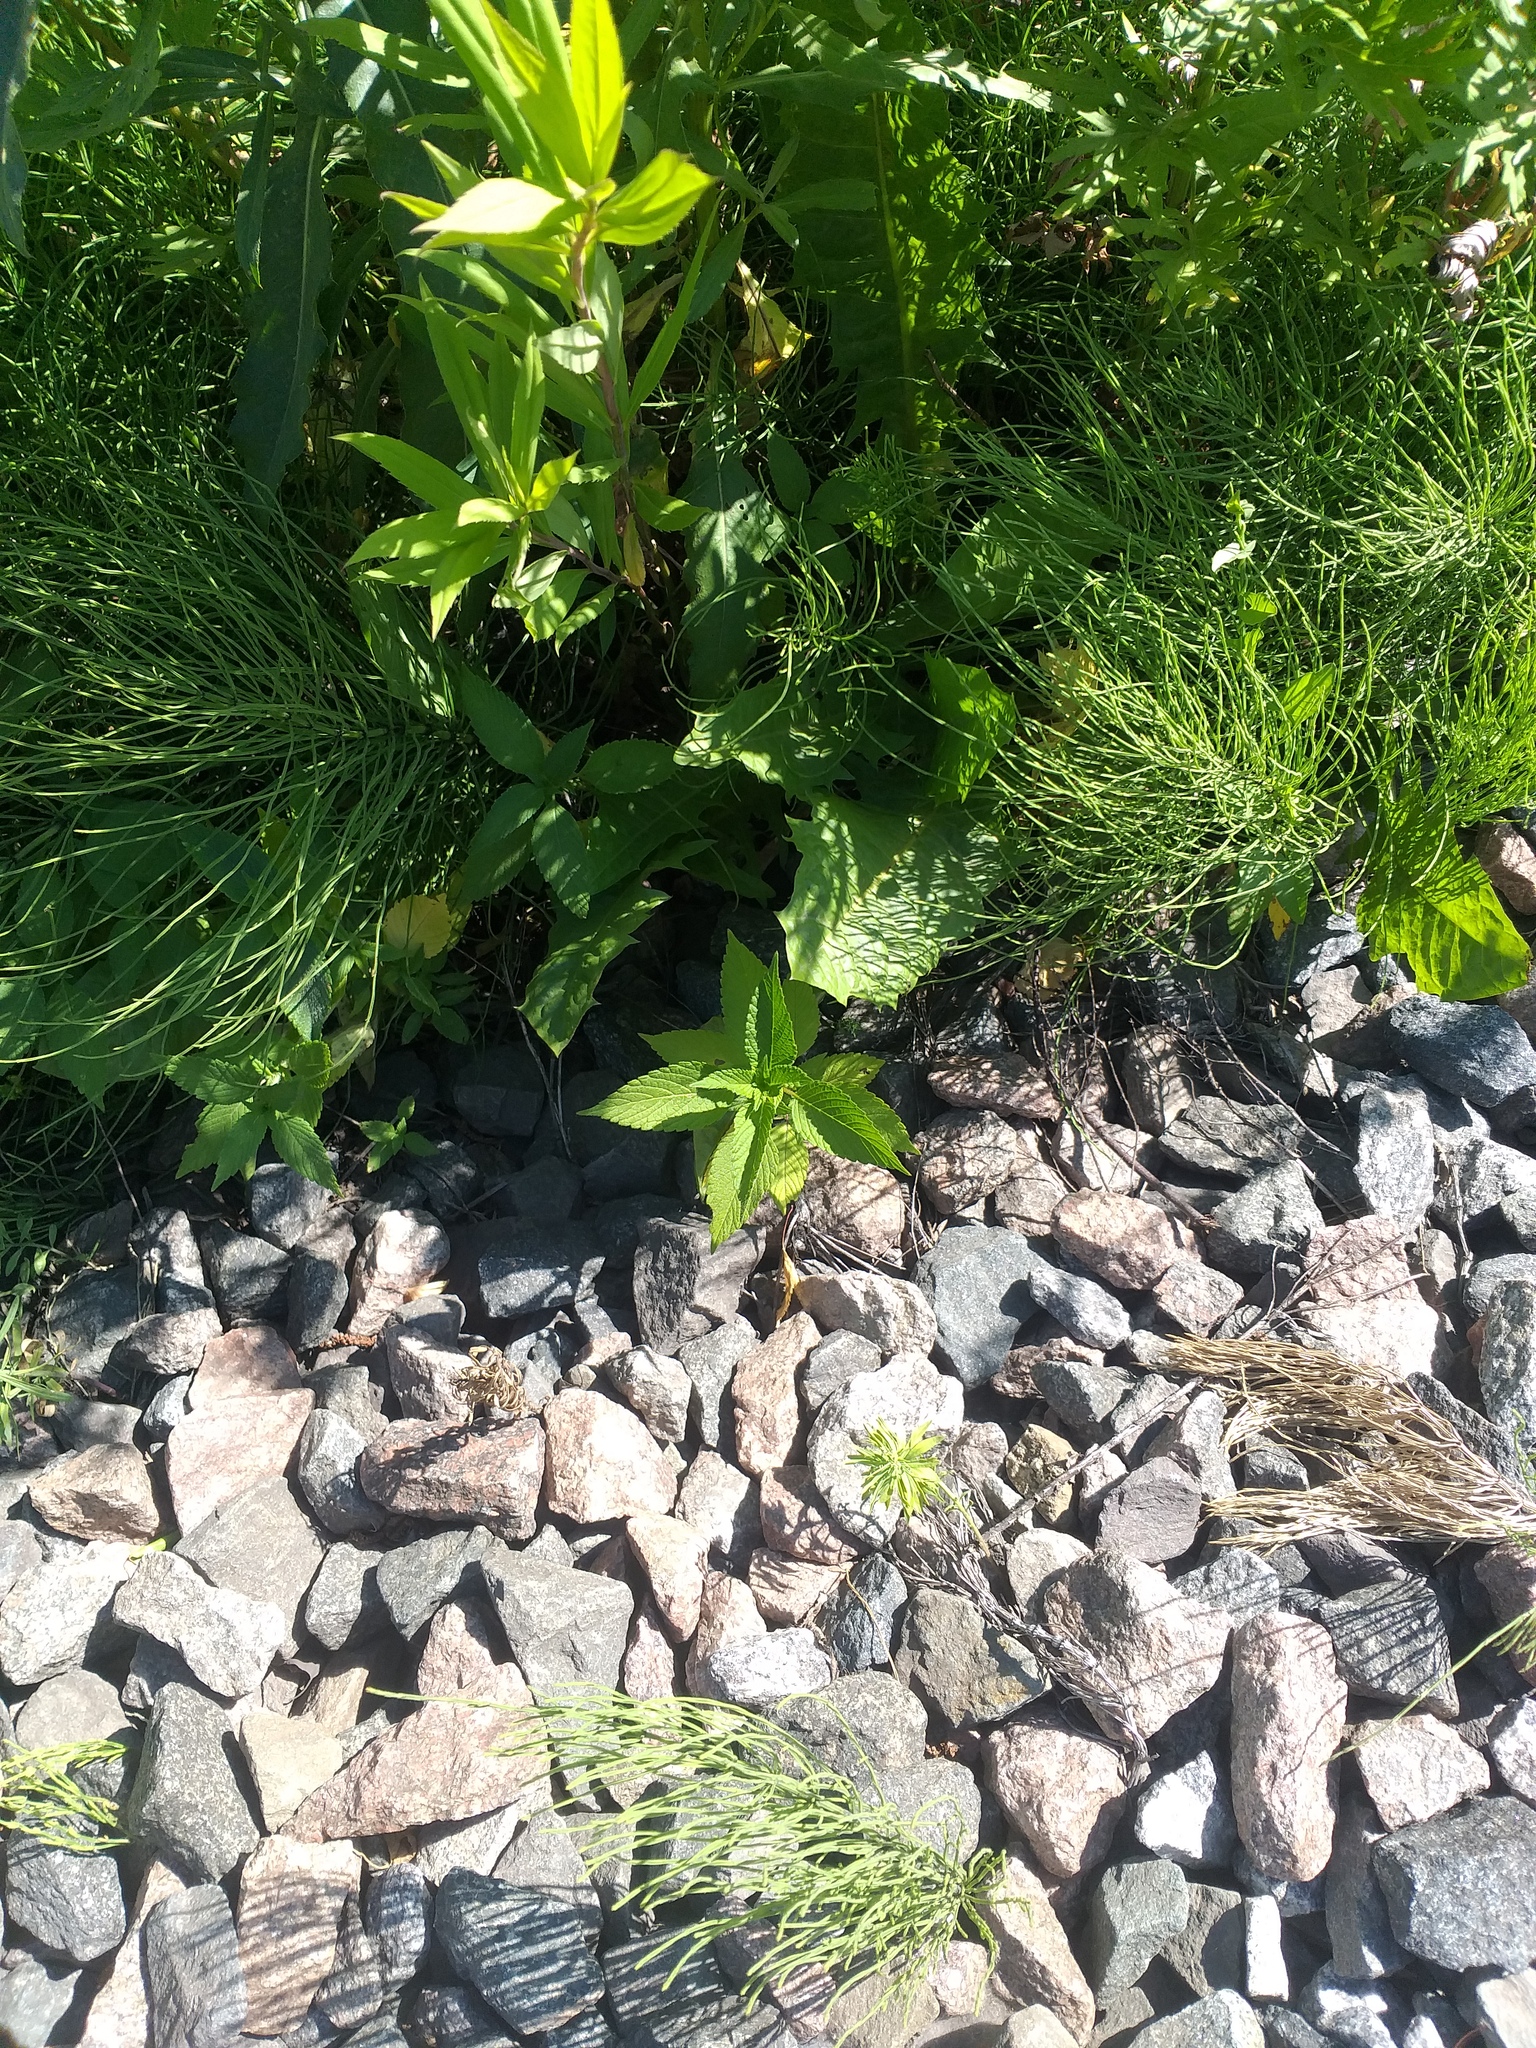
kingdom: Plantae
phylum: Tracheophyta
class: Magnoliopsida
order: Lamiales
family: Lamiaceae
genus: Galeopsis
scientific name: Galeopsis
